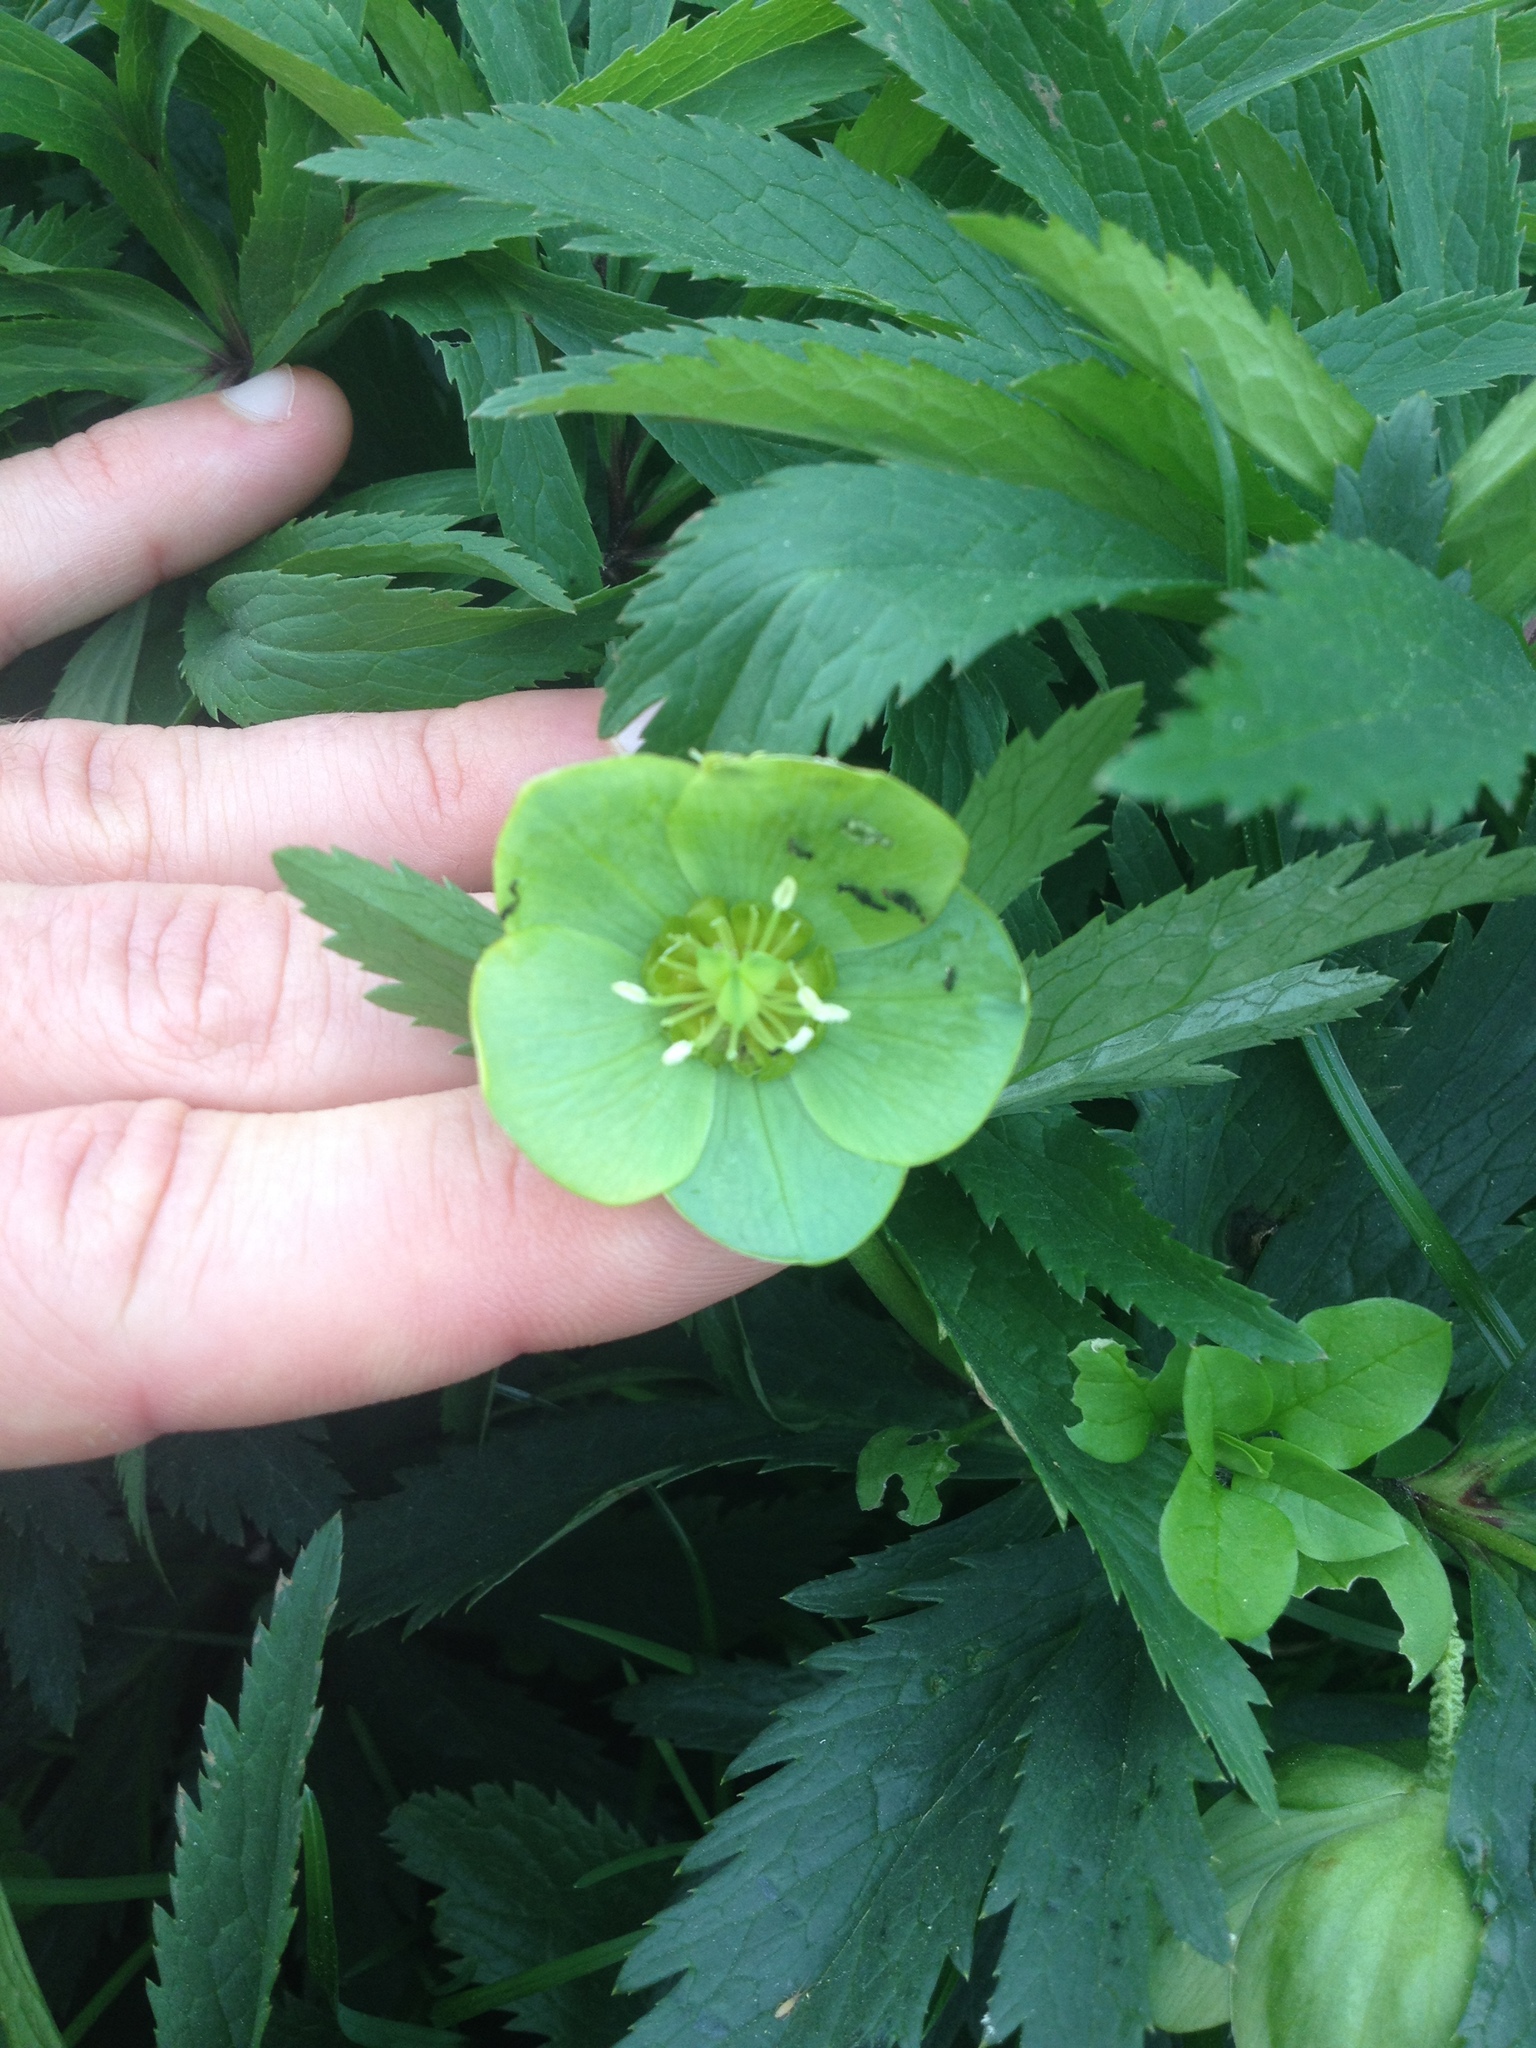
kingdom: Plantae
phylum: Tracheophyta
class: Magnoliopsida
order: Ranunculales
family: Ranunculaceae
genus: Helleborus
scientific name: Helleborus viridis
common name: Green hellebore
